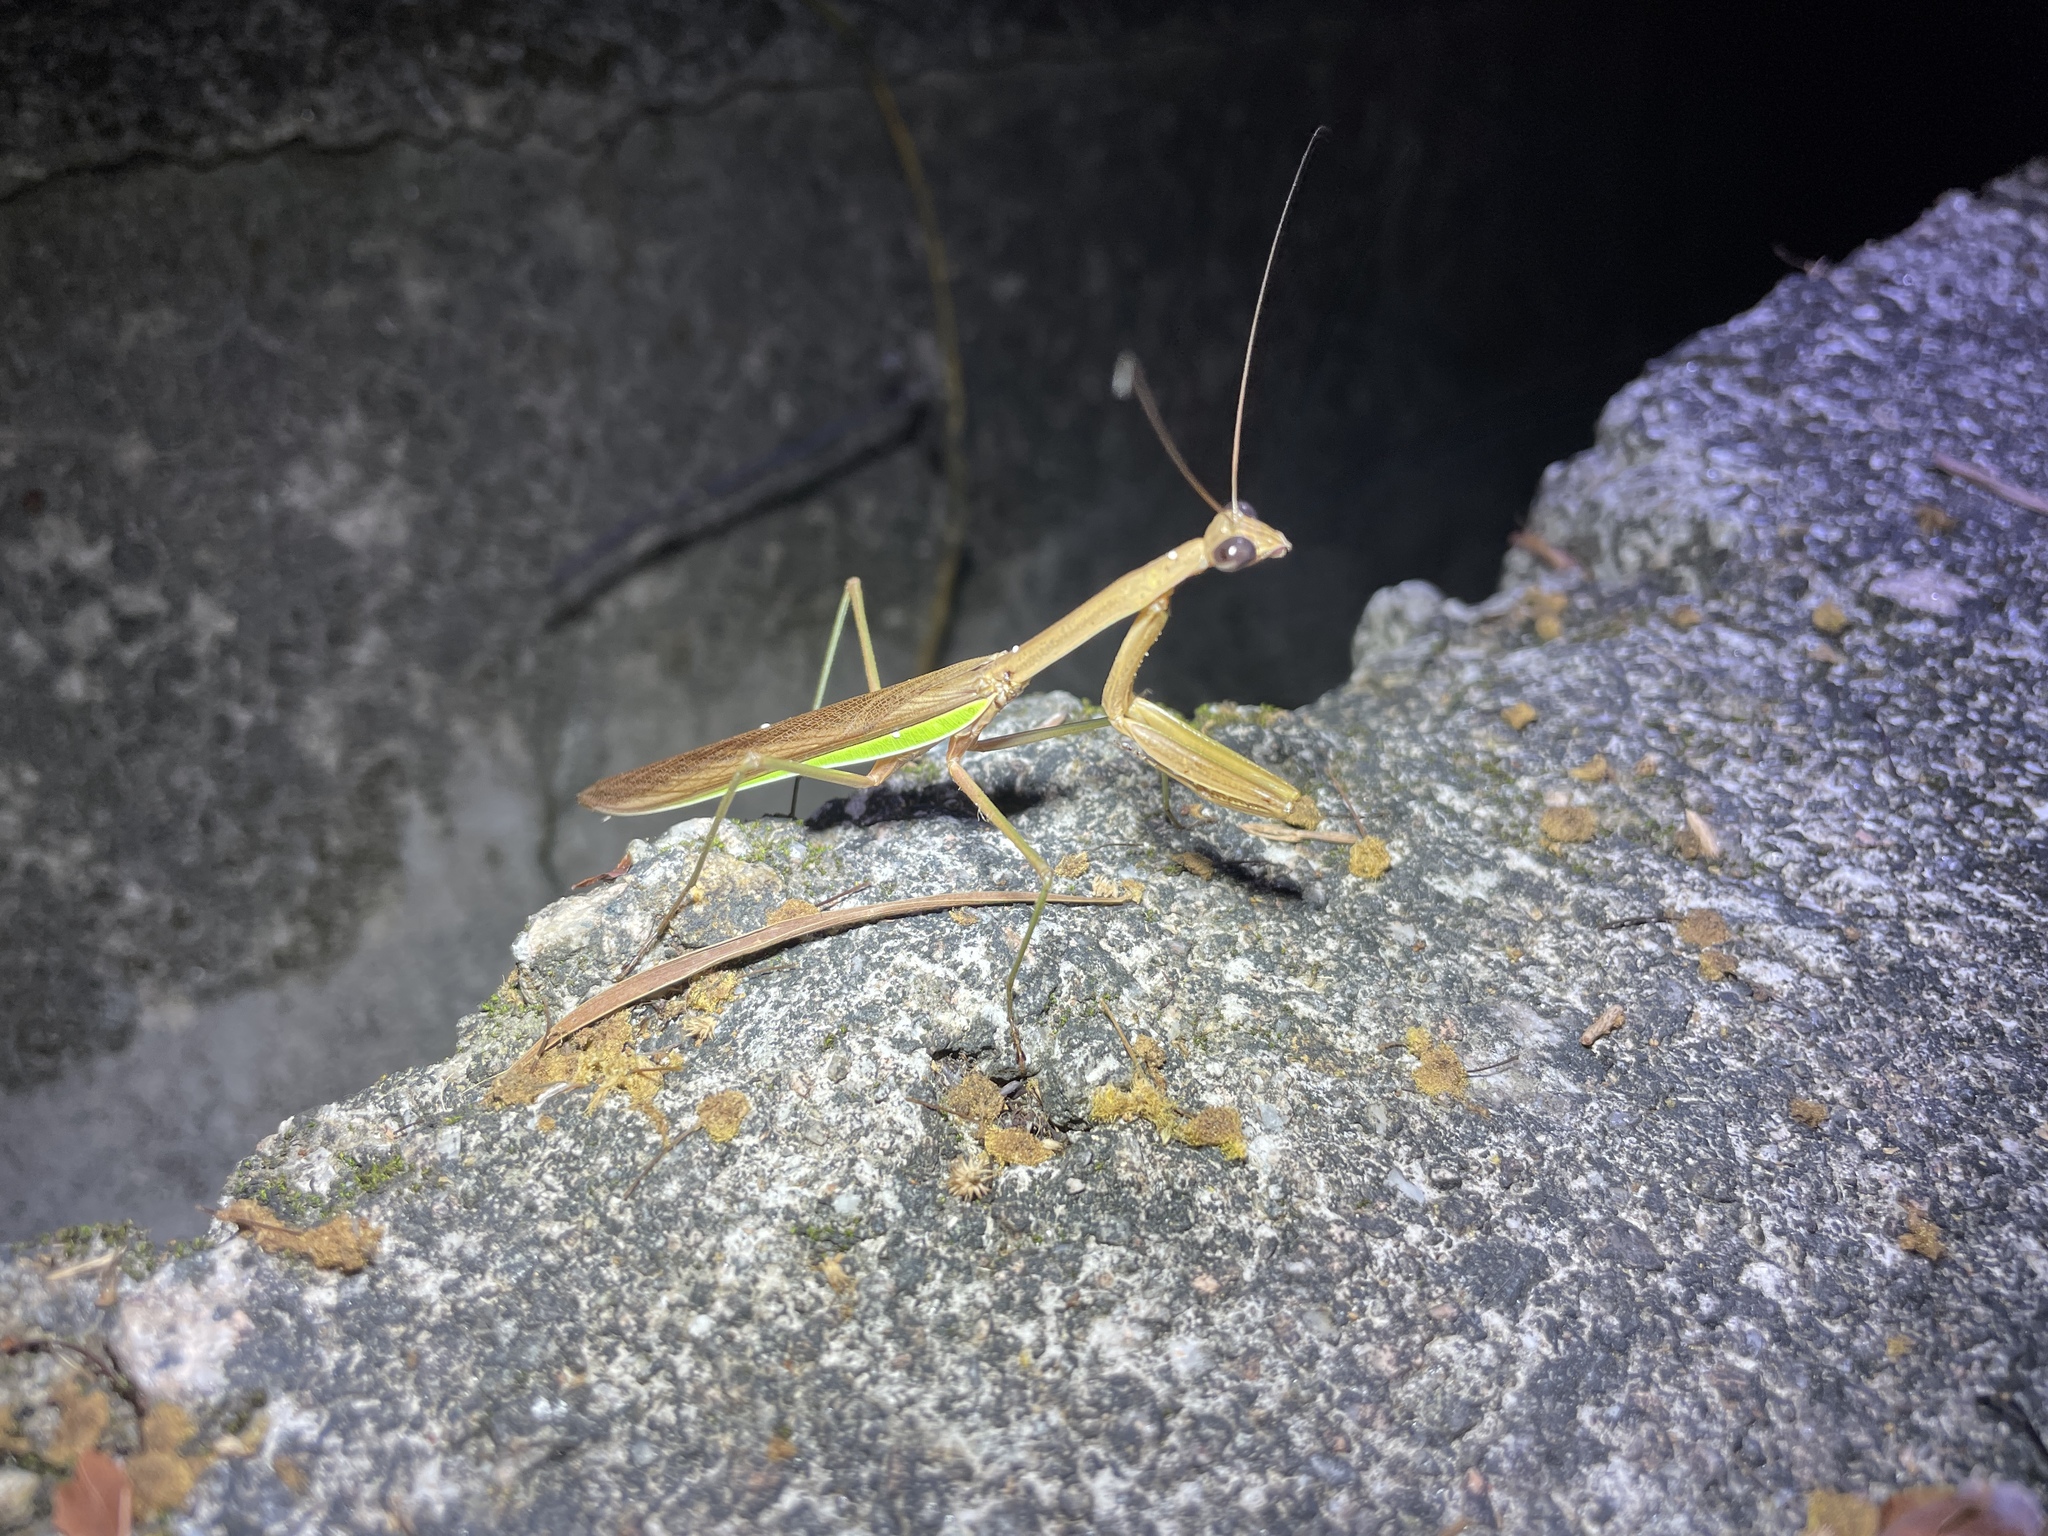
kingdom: Animalia
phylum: Arthropoda
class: Insecta
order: Mantodea
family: Mantidae
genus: Tenodera
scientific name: Tenodera sinensis
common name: Chinese mantis
